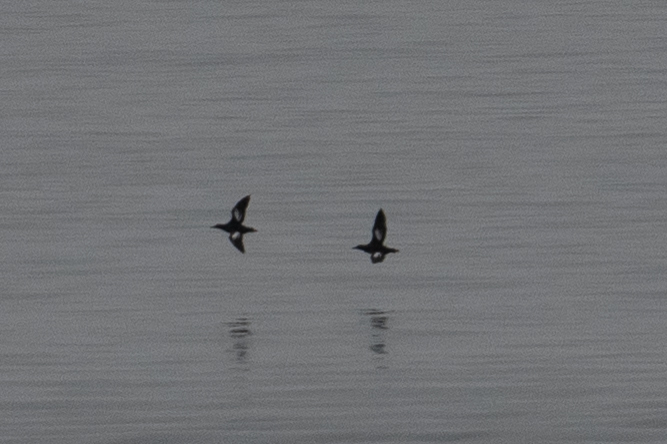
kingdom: Animalia
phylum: Chordata
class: Aves
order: Charadriiformes
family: Alcidae
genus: Cepphus
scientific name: Cepphus columba
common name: Pigeon guillemot
